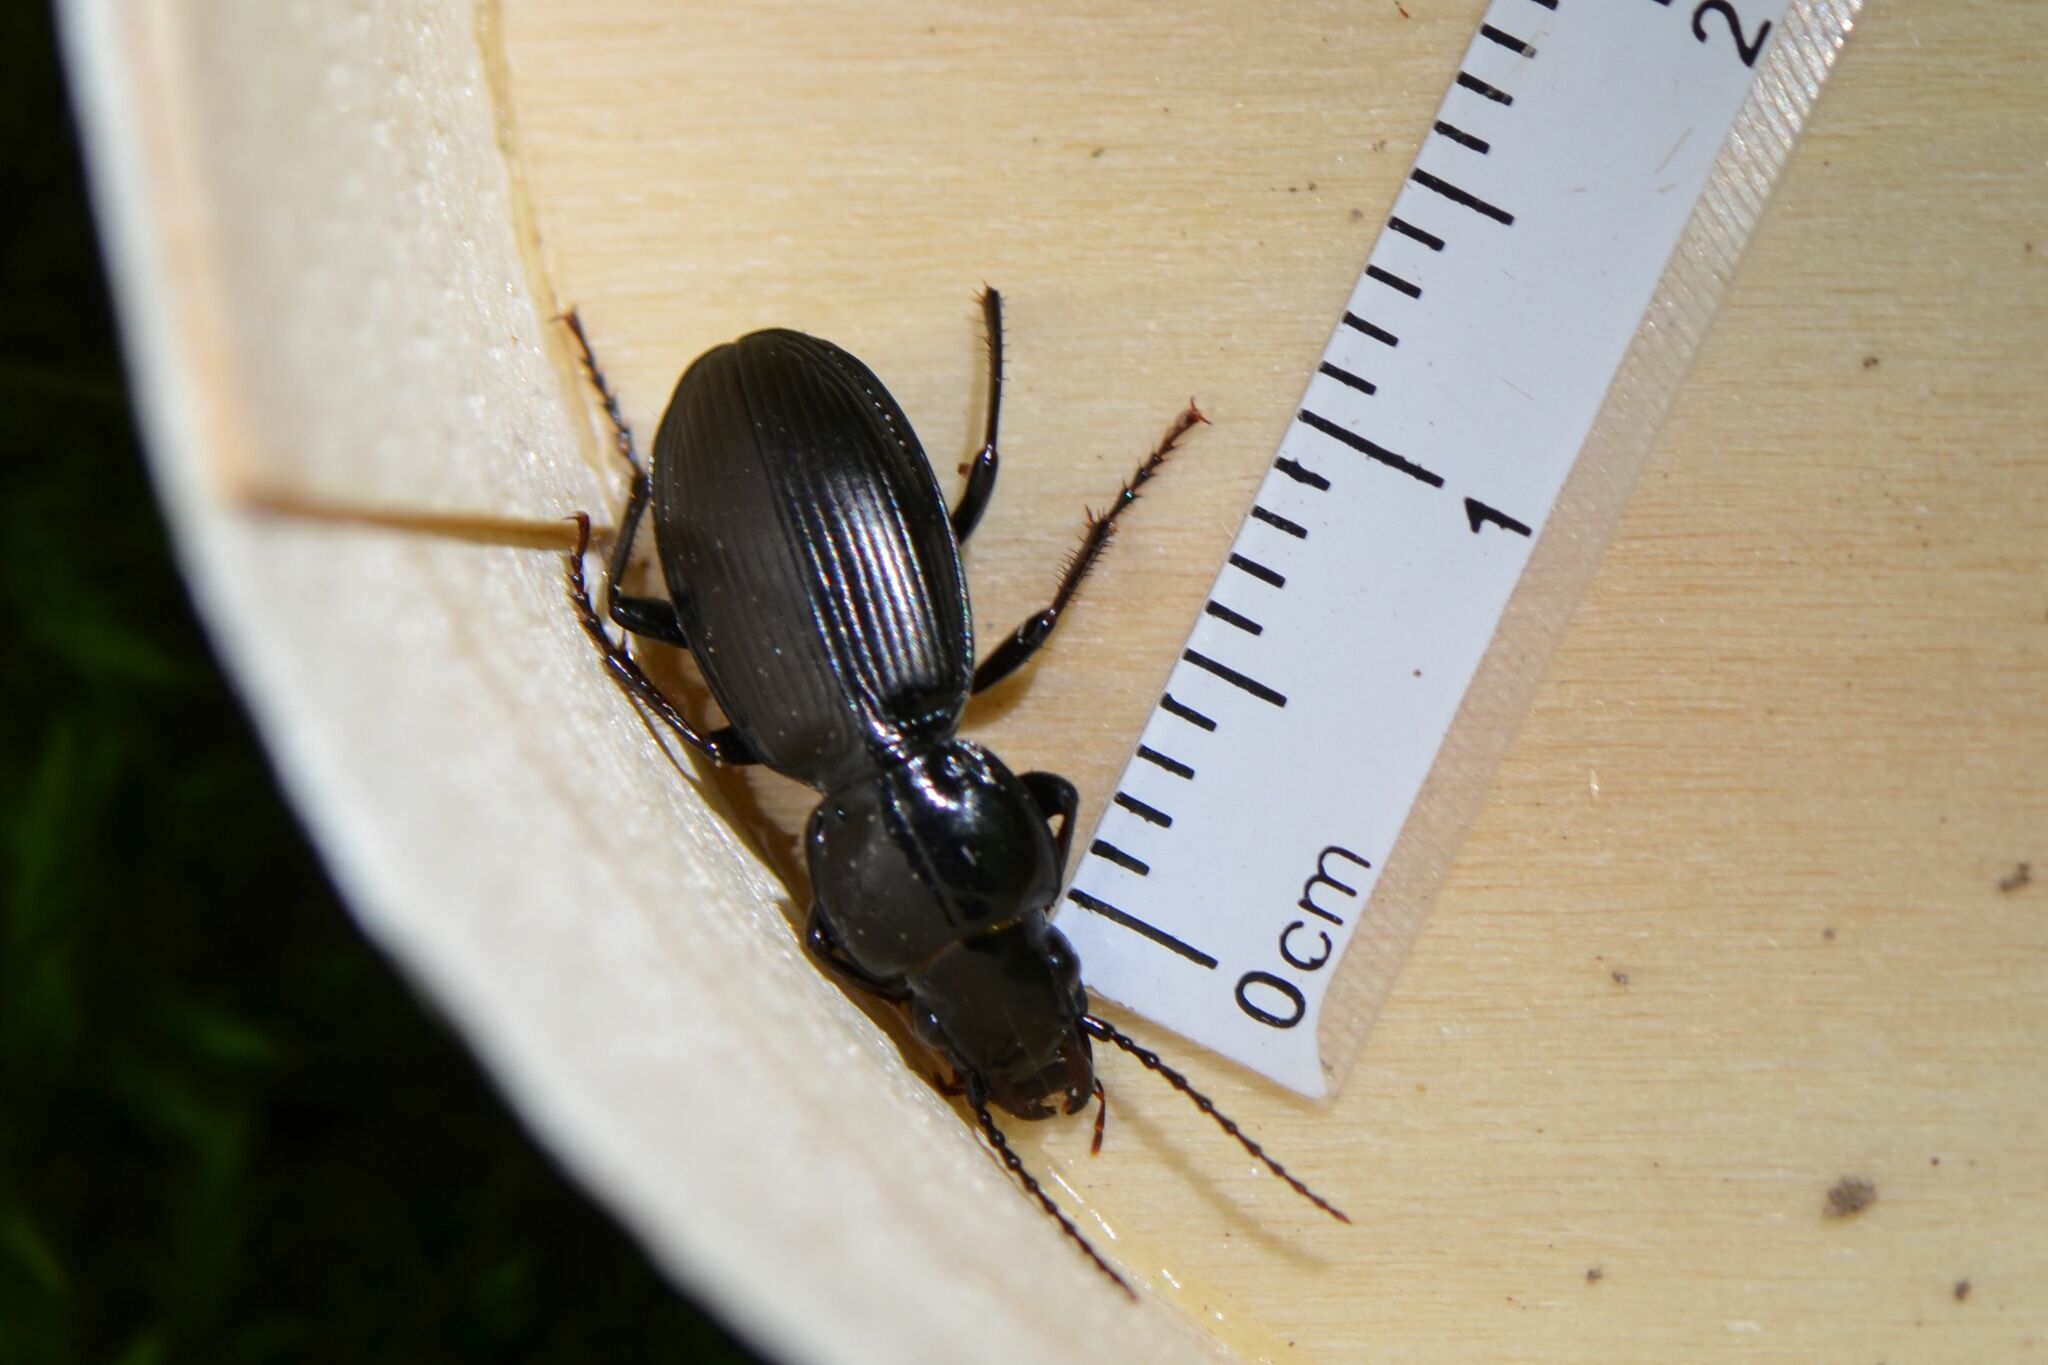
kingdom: Animalia
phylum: Arthropoda
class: Insecta
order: Coleoptera
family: Carabidae
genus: Pterostichus
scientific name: Pterostichus madidus
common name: Black clock
